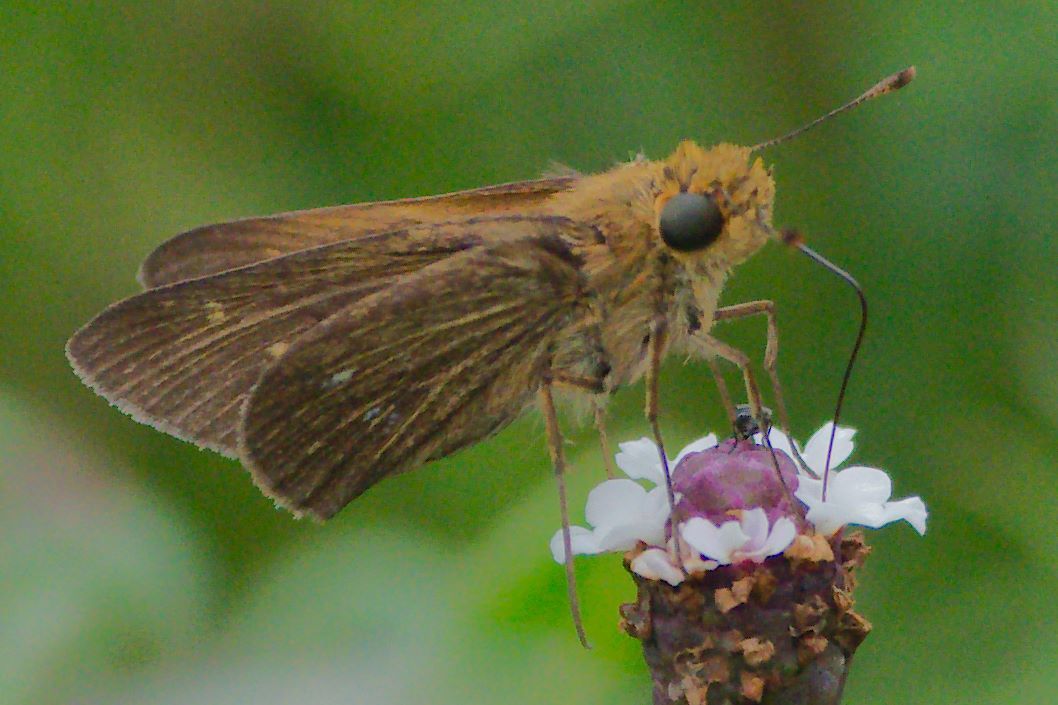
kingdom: Animalia
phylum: Arthropoda
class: Insecta
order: Lepidoptera
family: Hesperiidae
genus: Panoquina
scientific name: Panoquina panoquinoides
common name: Beach skipper
